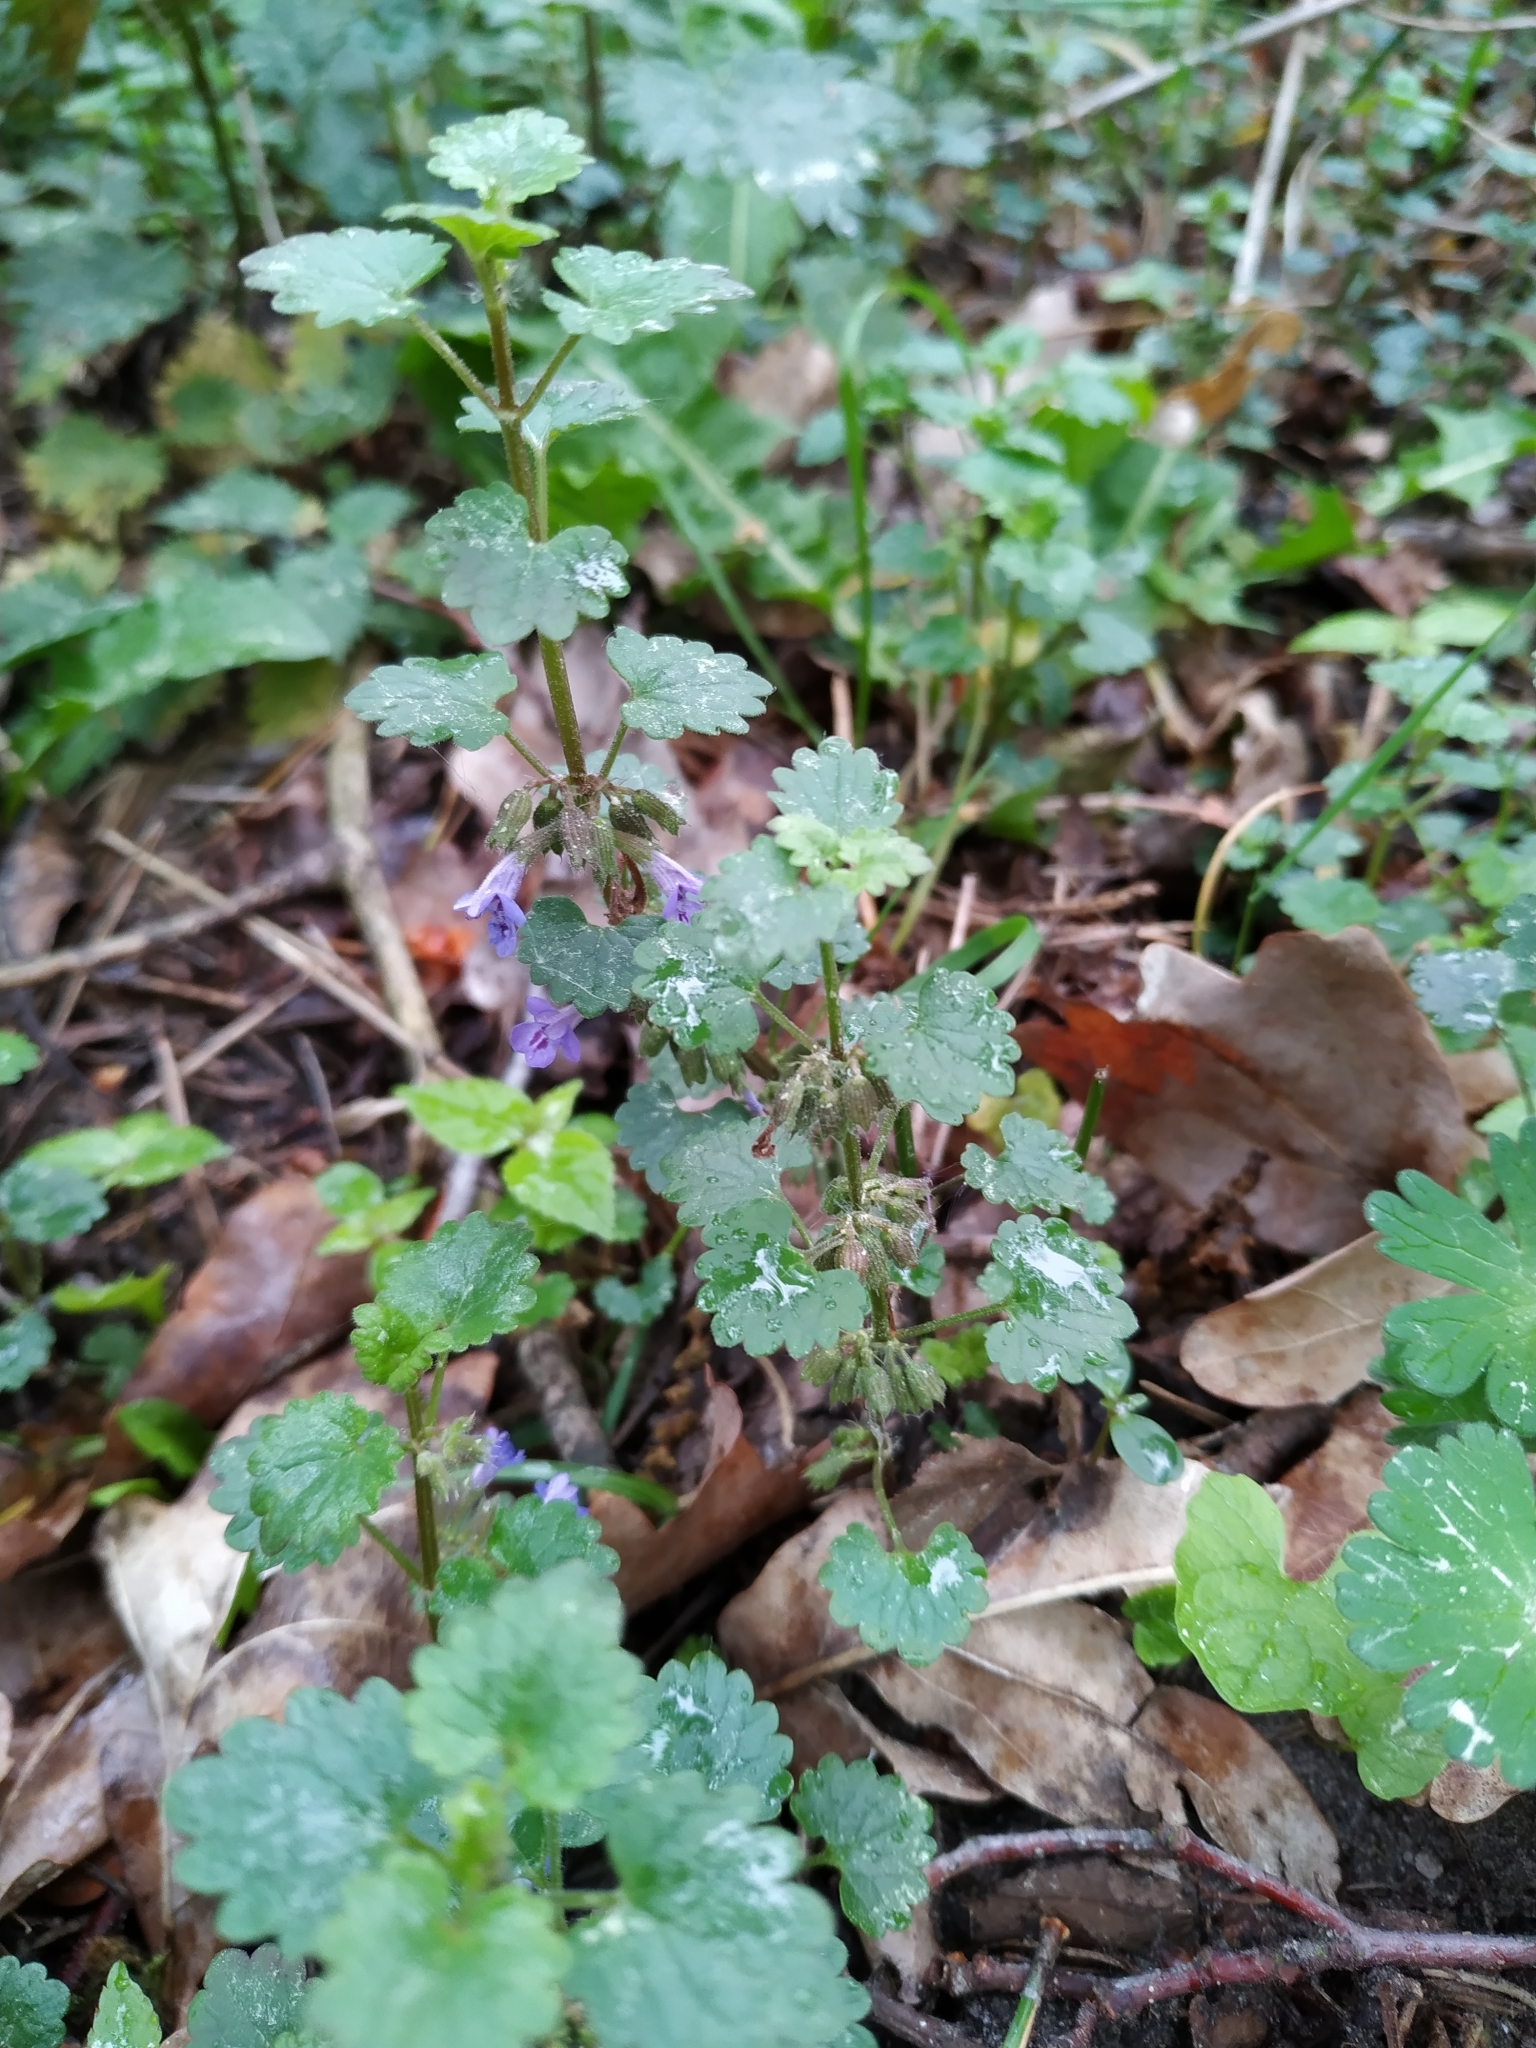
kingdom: Plantae
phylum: Tracheophyta
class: Magnoliopsida
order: Lamiales
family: Lamiaceae
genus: Glechoma
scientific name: Glechoma hederacea
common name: Ground ivy
